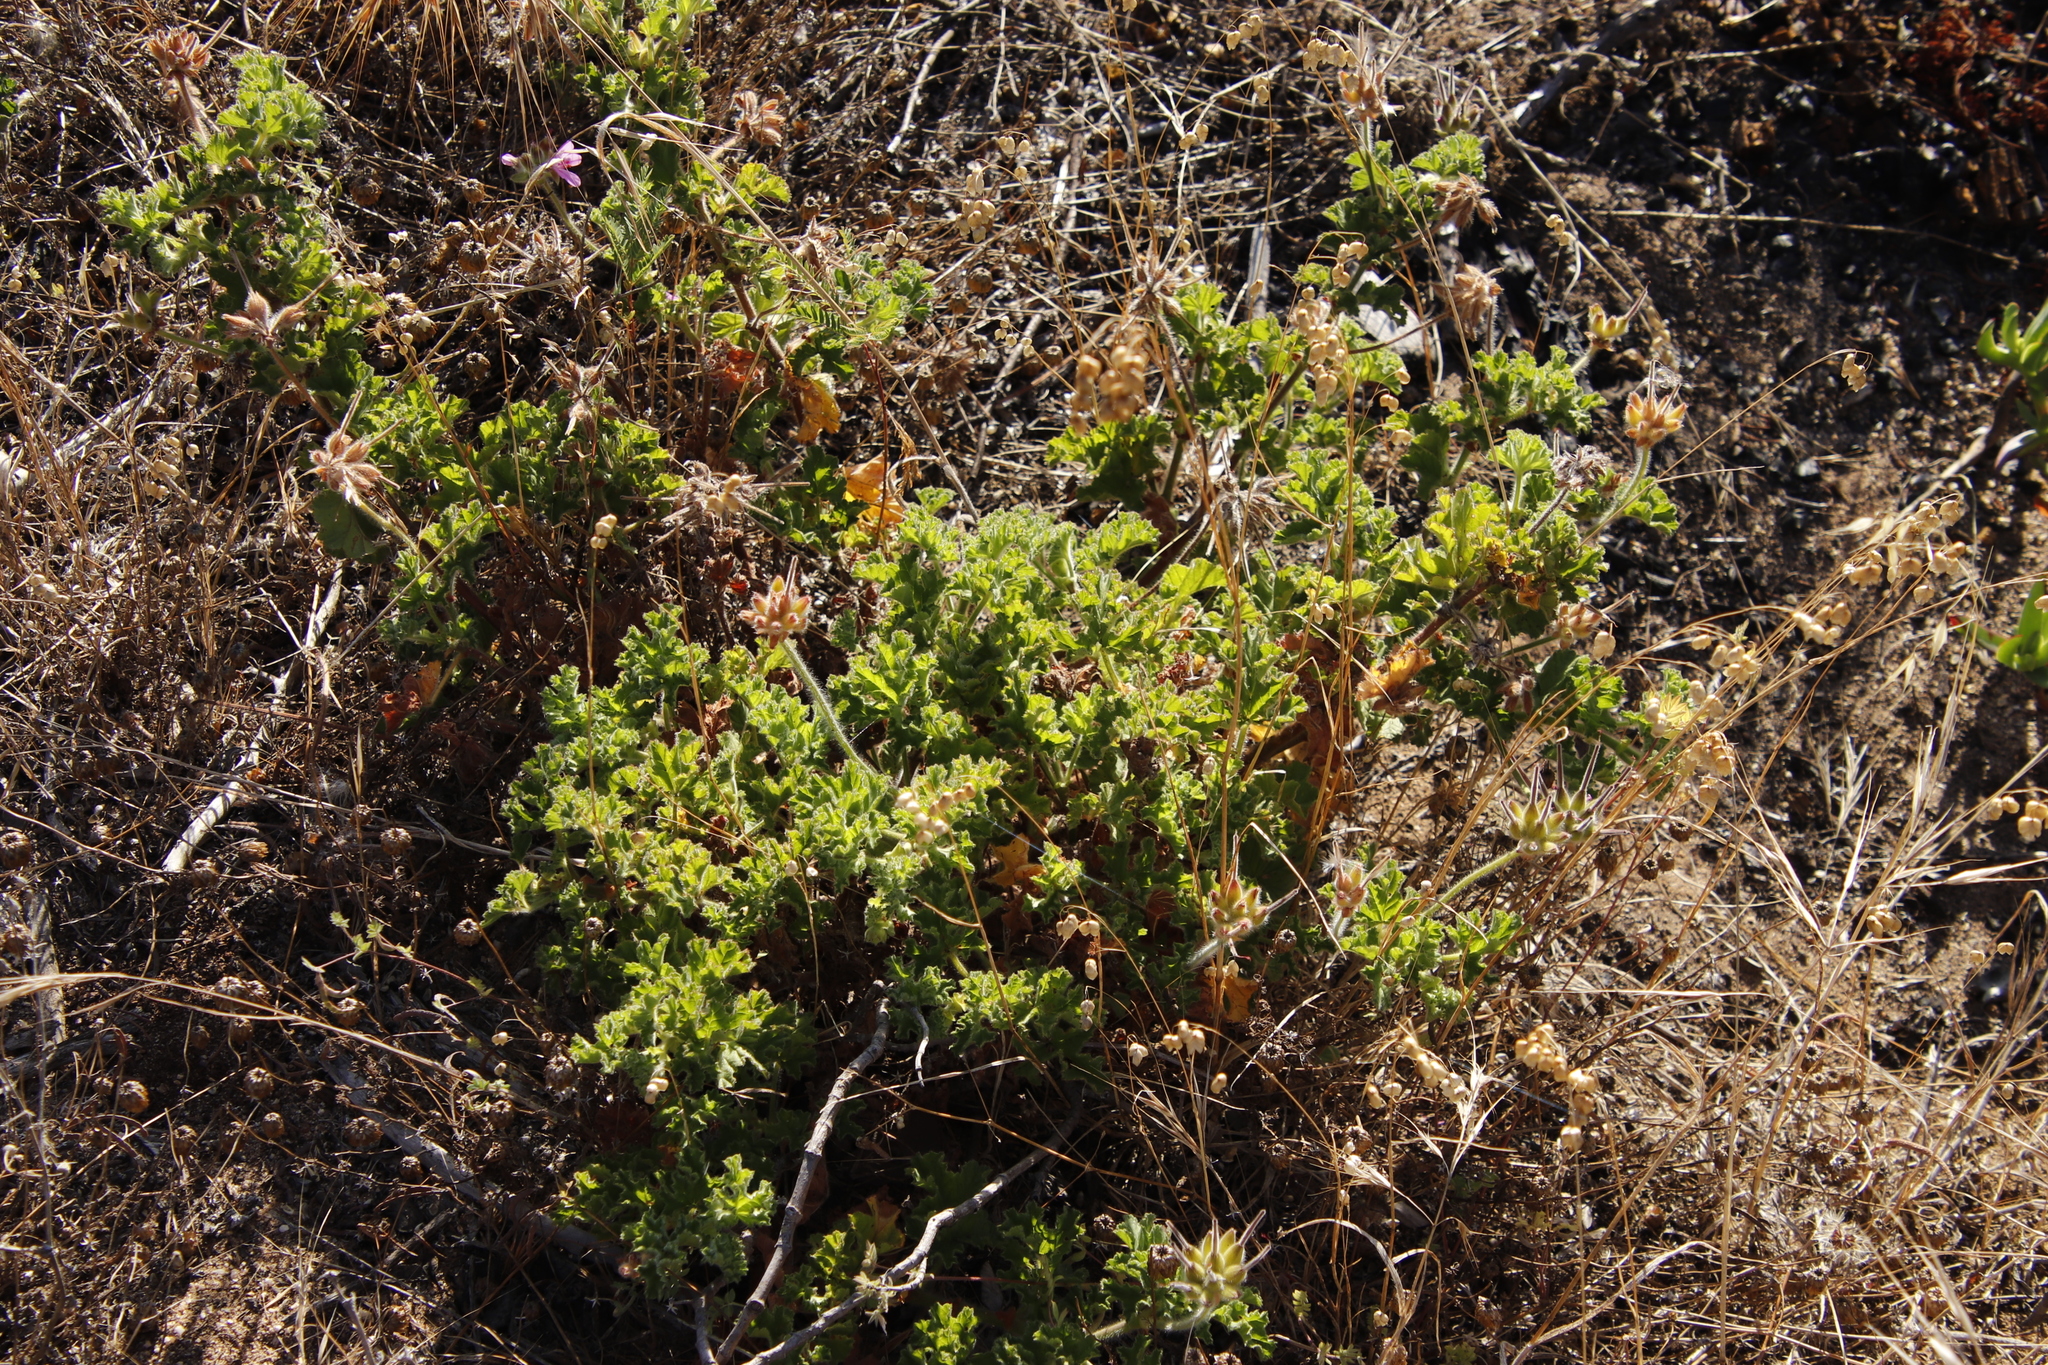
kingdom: Plantae
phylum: Tracheophyta
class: Magnoliopsida
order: Geraniales
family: Geraniaceae
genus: Pelargonium
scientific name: Pelargonium capitatum
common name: Rose scented geranium
